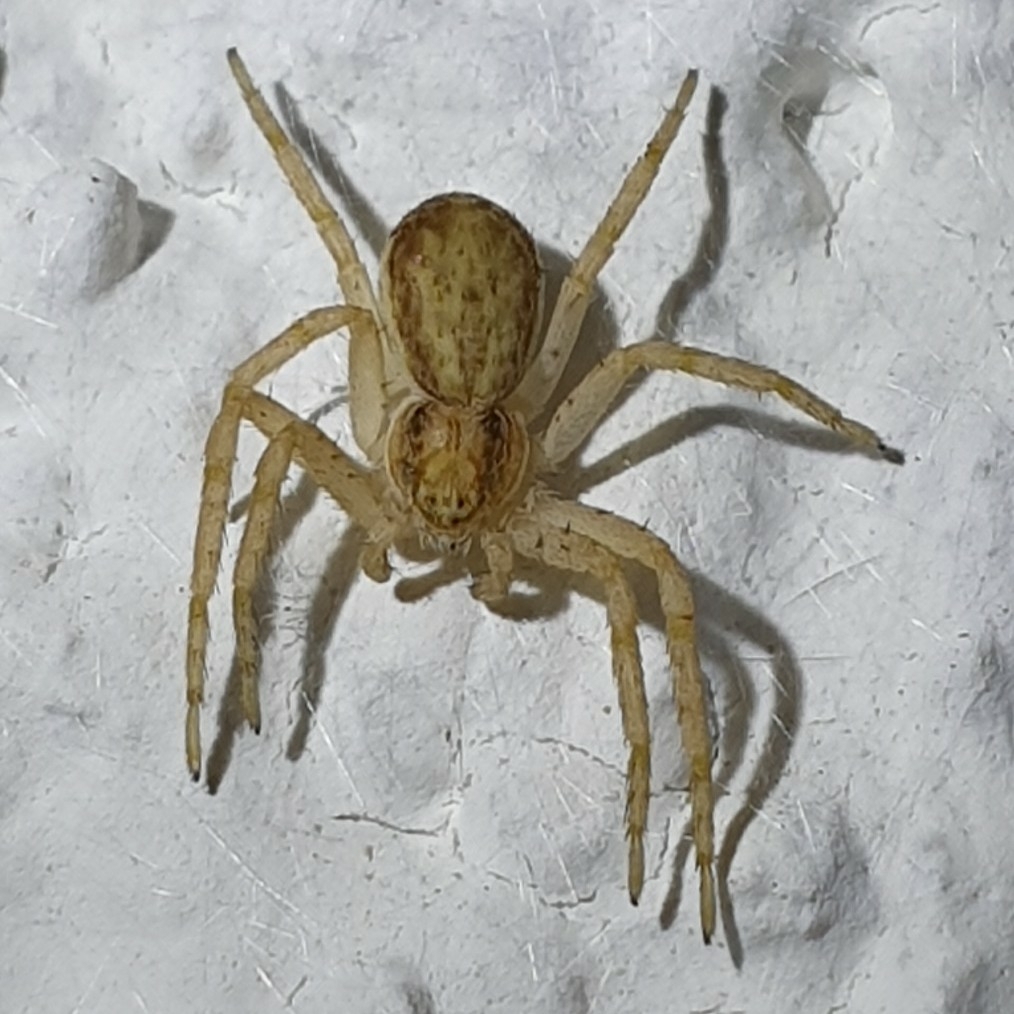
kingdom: Animalia
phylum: Arthropoda
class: Arachnida
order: Araneae
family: Philodromidae
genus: Philodromus
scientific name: Philodromus dispar
